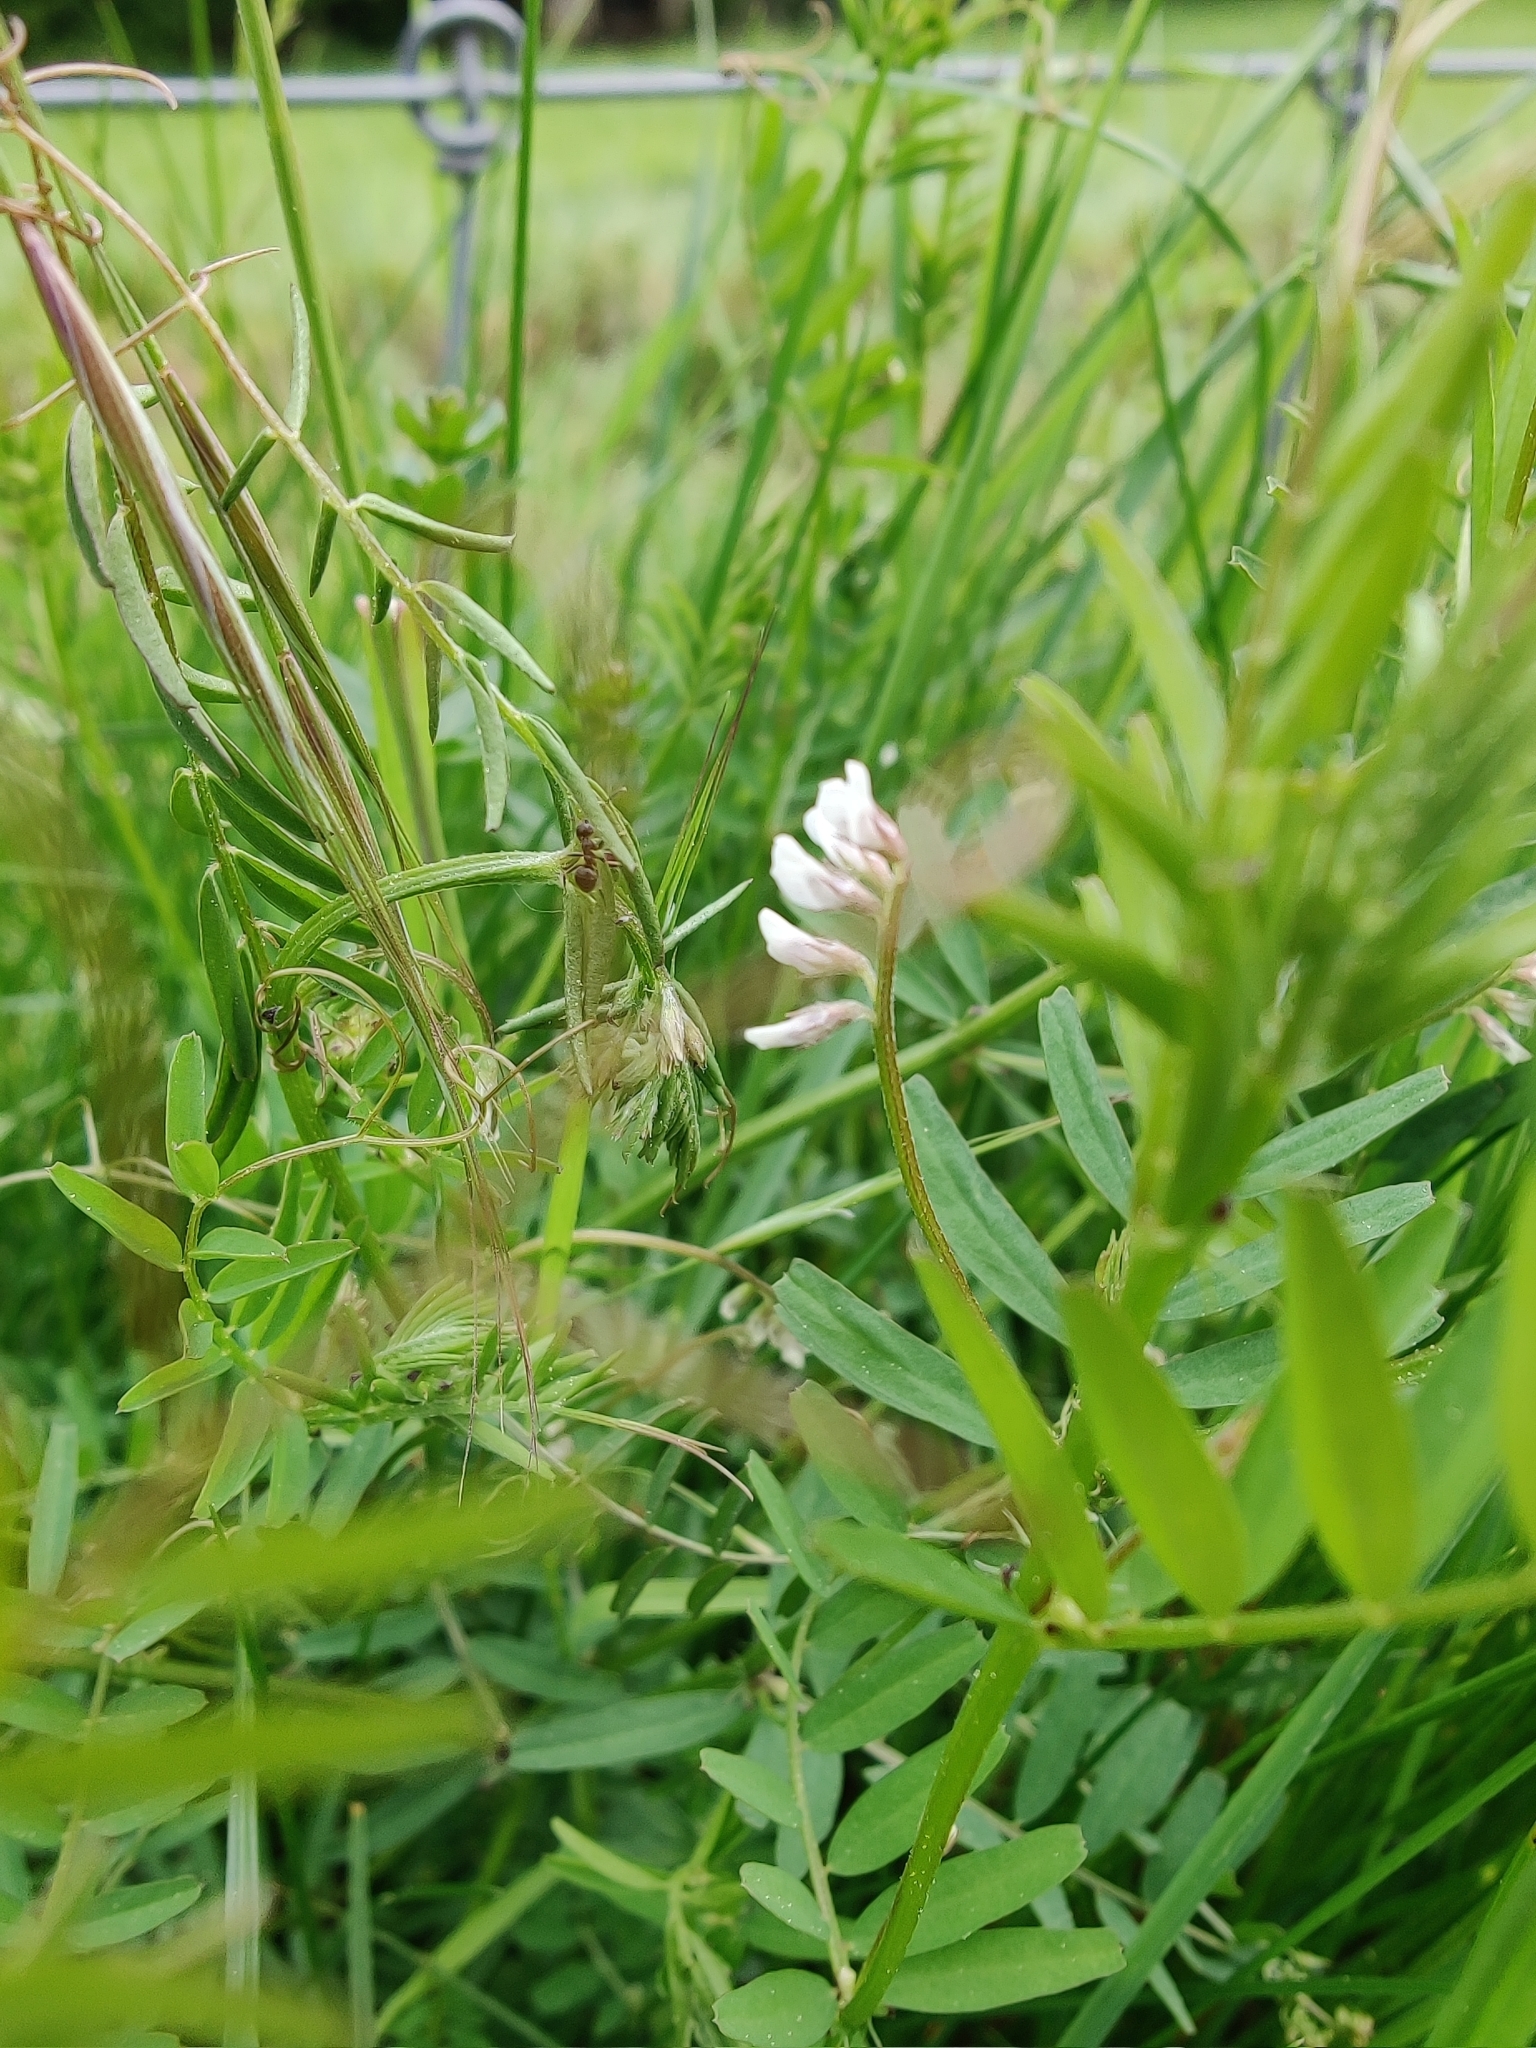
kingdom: Plantae
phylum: Tracheophyta
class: Magnoliopsida
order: Fabales
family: Fabaceae
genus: Vicia
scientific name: Vicia hirsuta
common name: Tiny vetch
